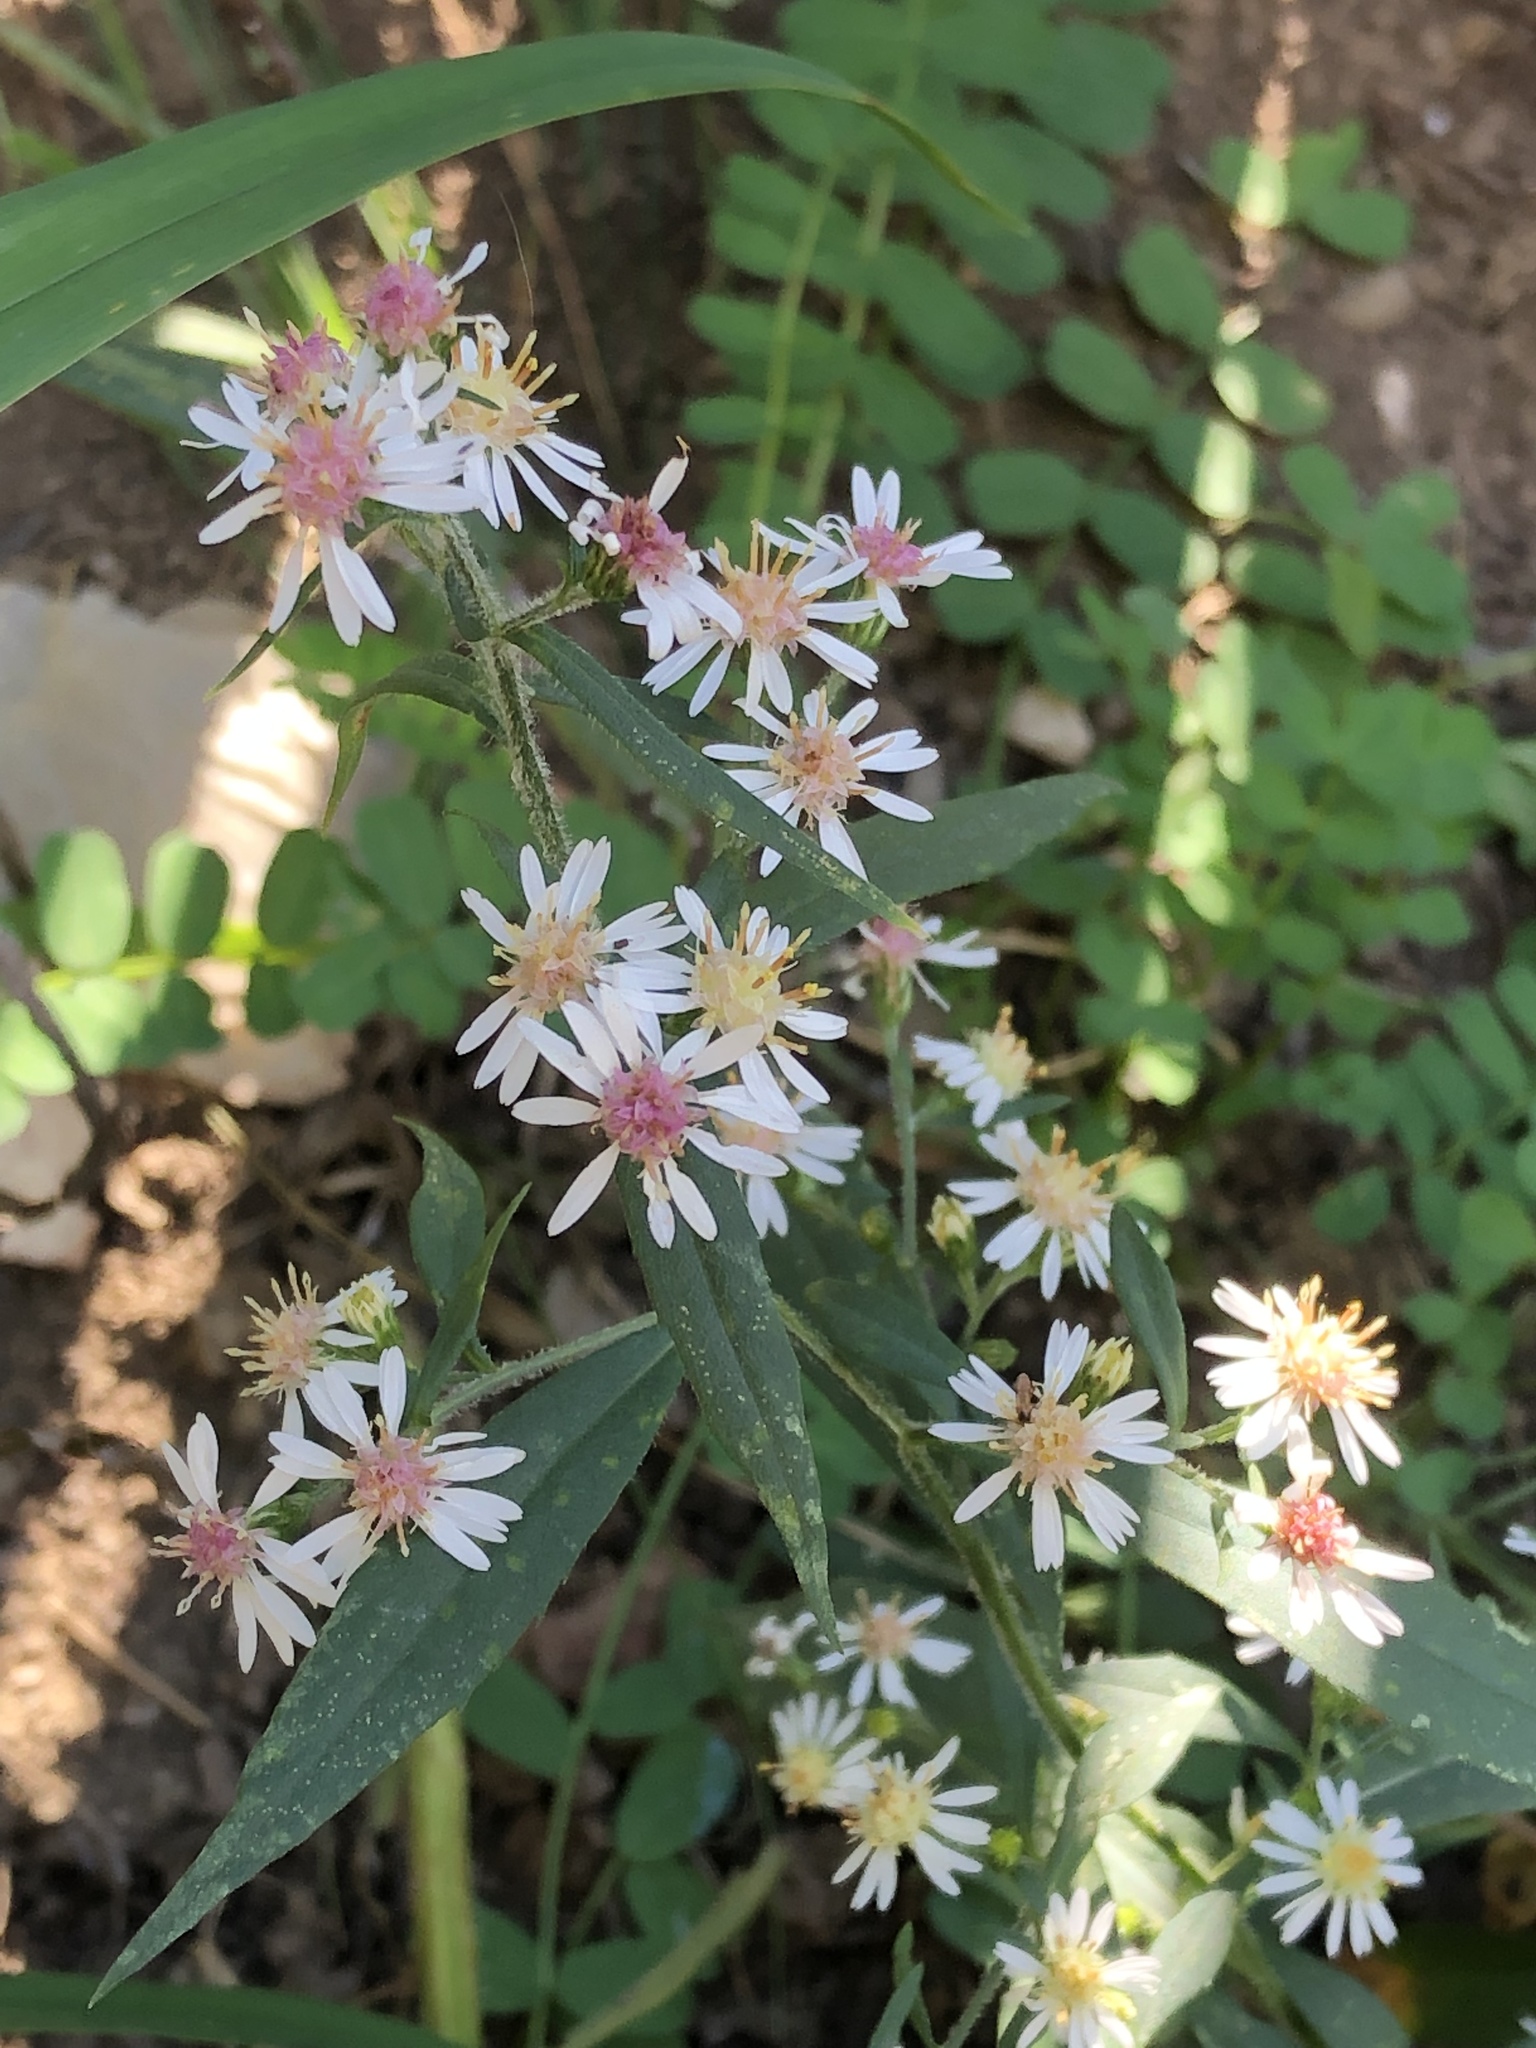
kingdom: Plantae
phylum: Tracheophyta
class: Magnoliopsida
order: Asterales
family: Asteraceae
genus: Symphyotrichum
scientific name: Symphyotrichum lateriflorum
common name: Calico aster
